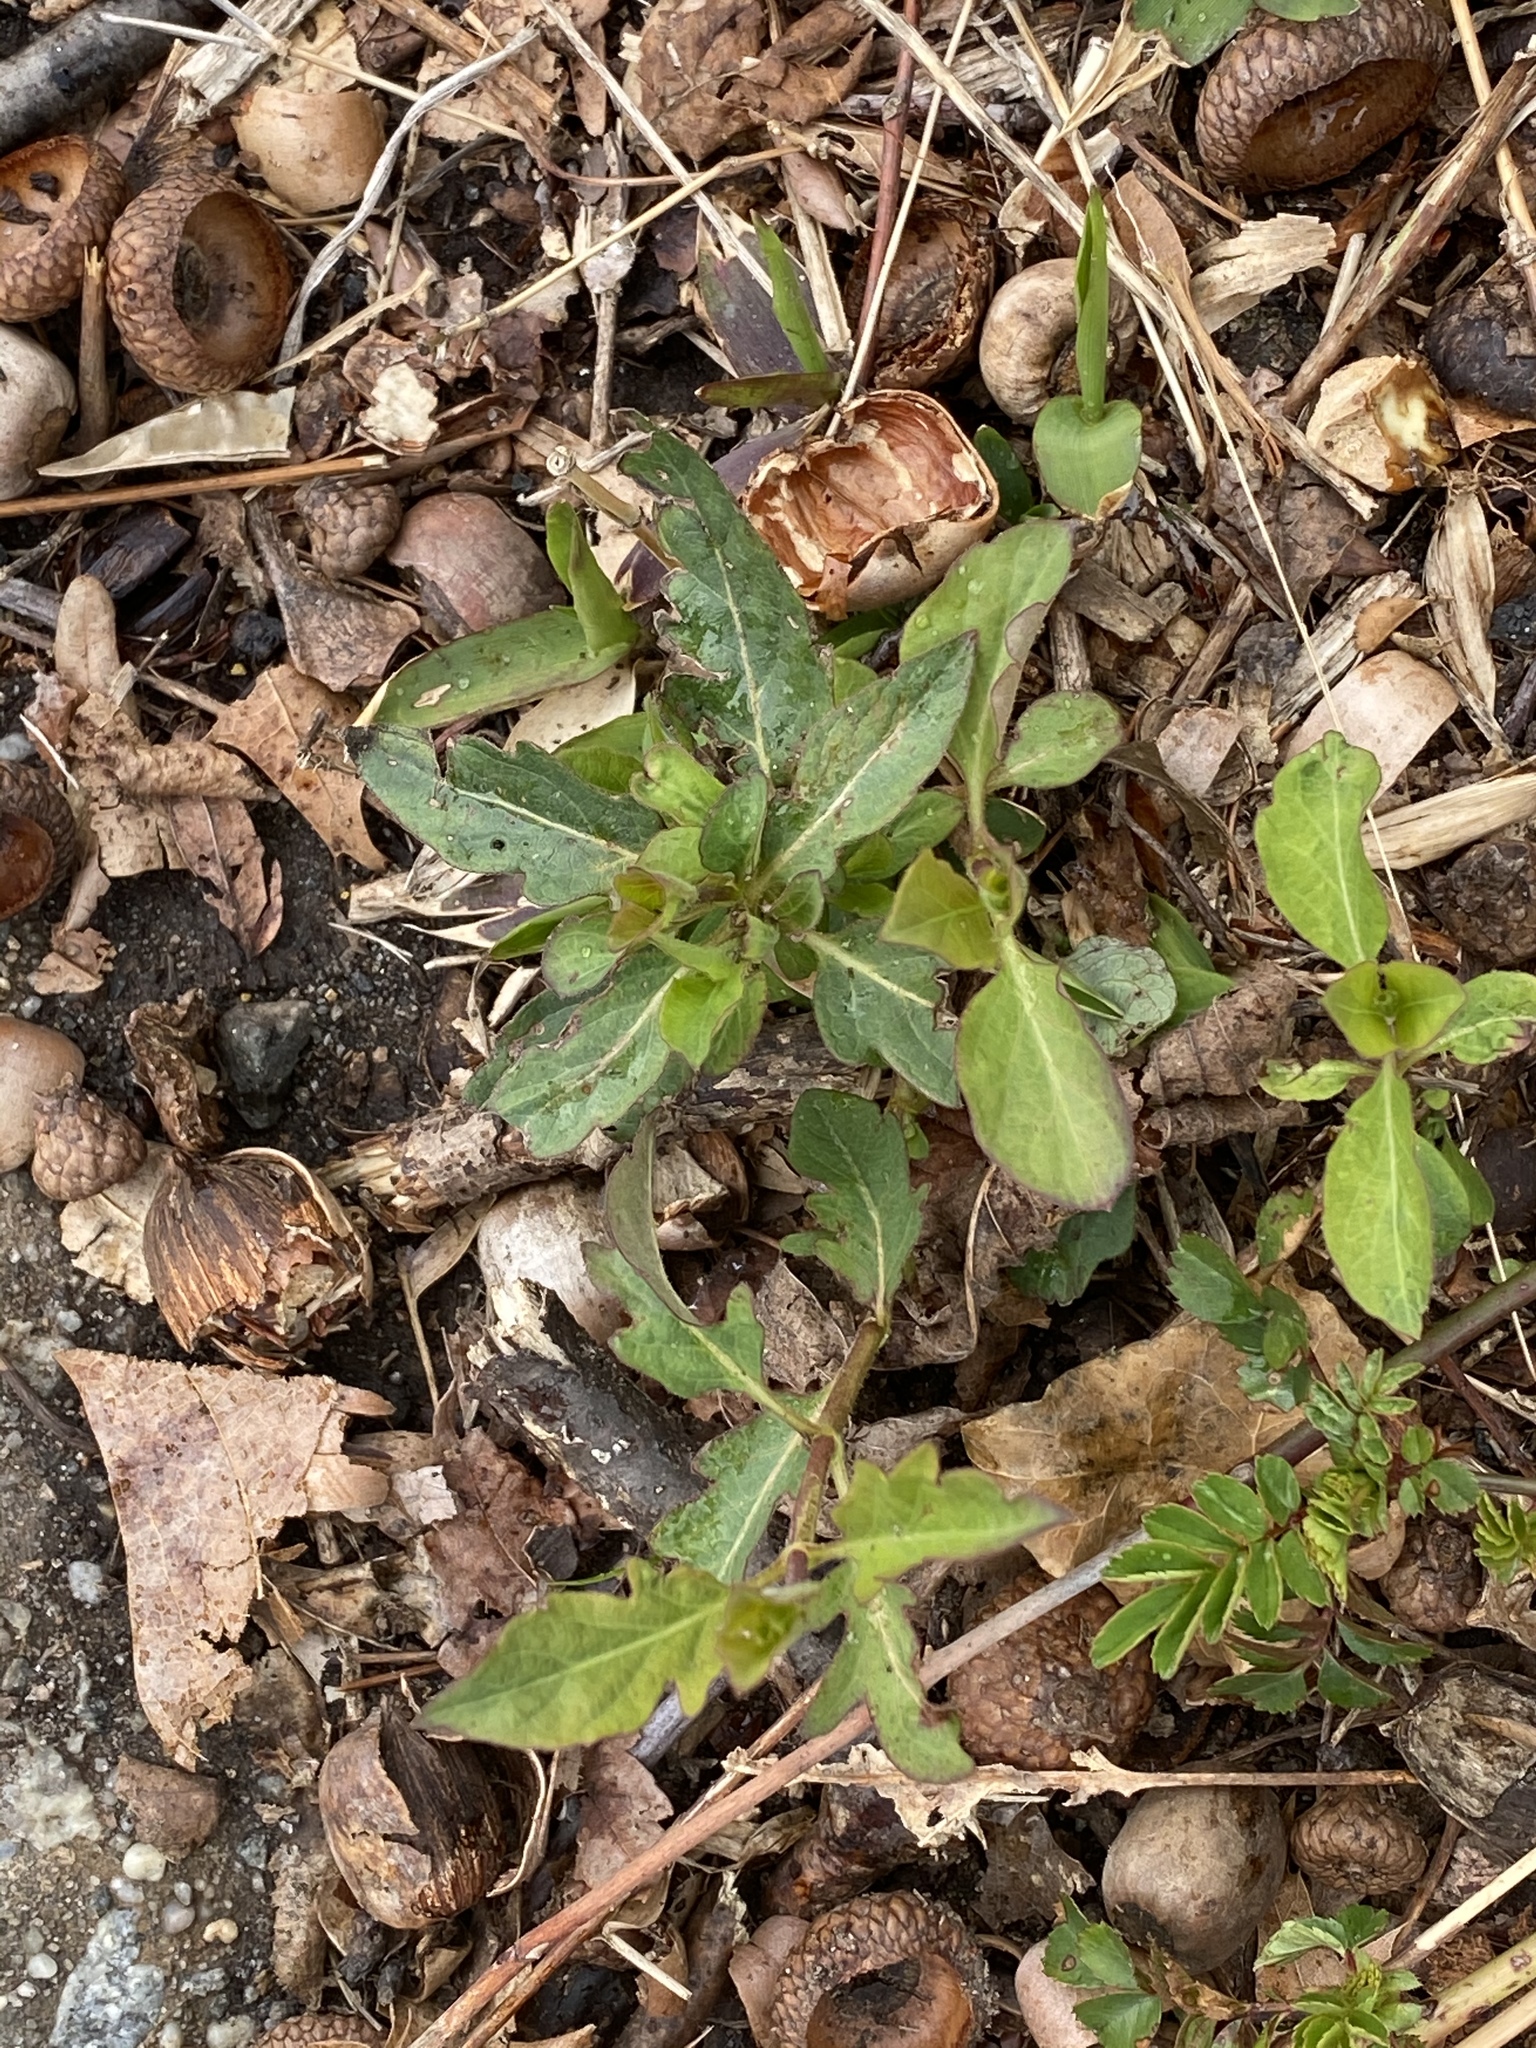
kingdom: Plantae
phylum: Tracheophyta
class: Magnoliopsida
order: Dipsacales
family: Caprifoliaceae
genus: Lonicera
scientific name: Lonicera japonica
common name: Japanese honeysuckle
